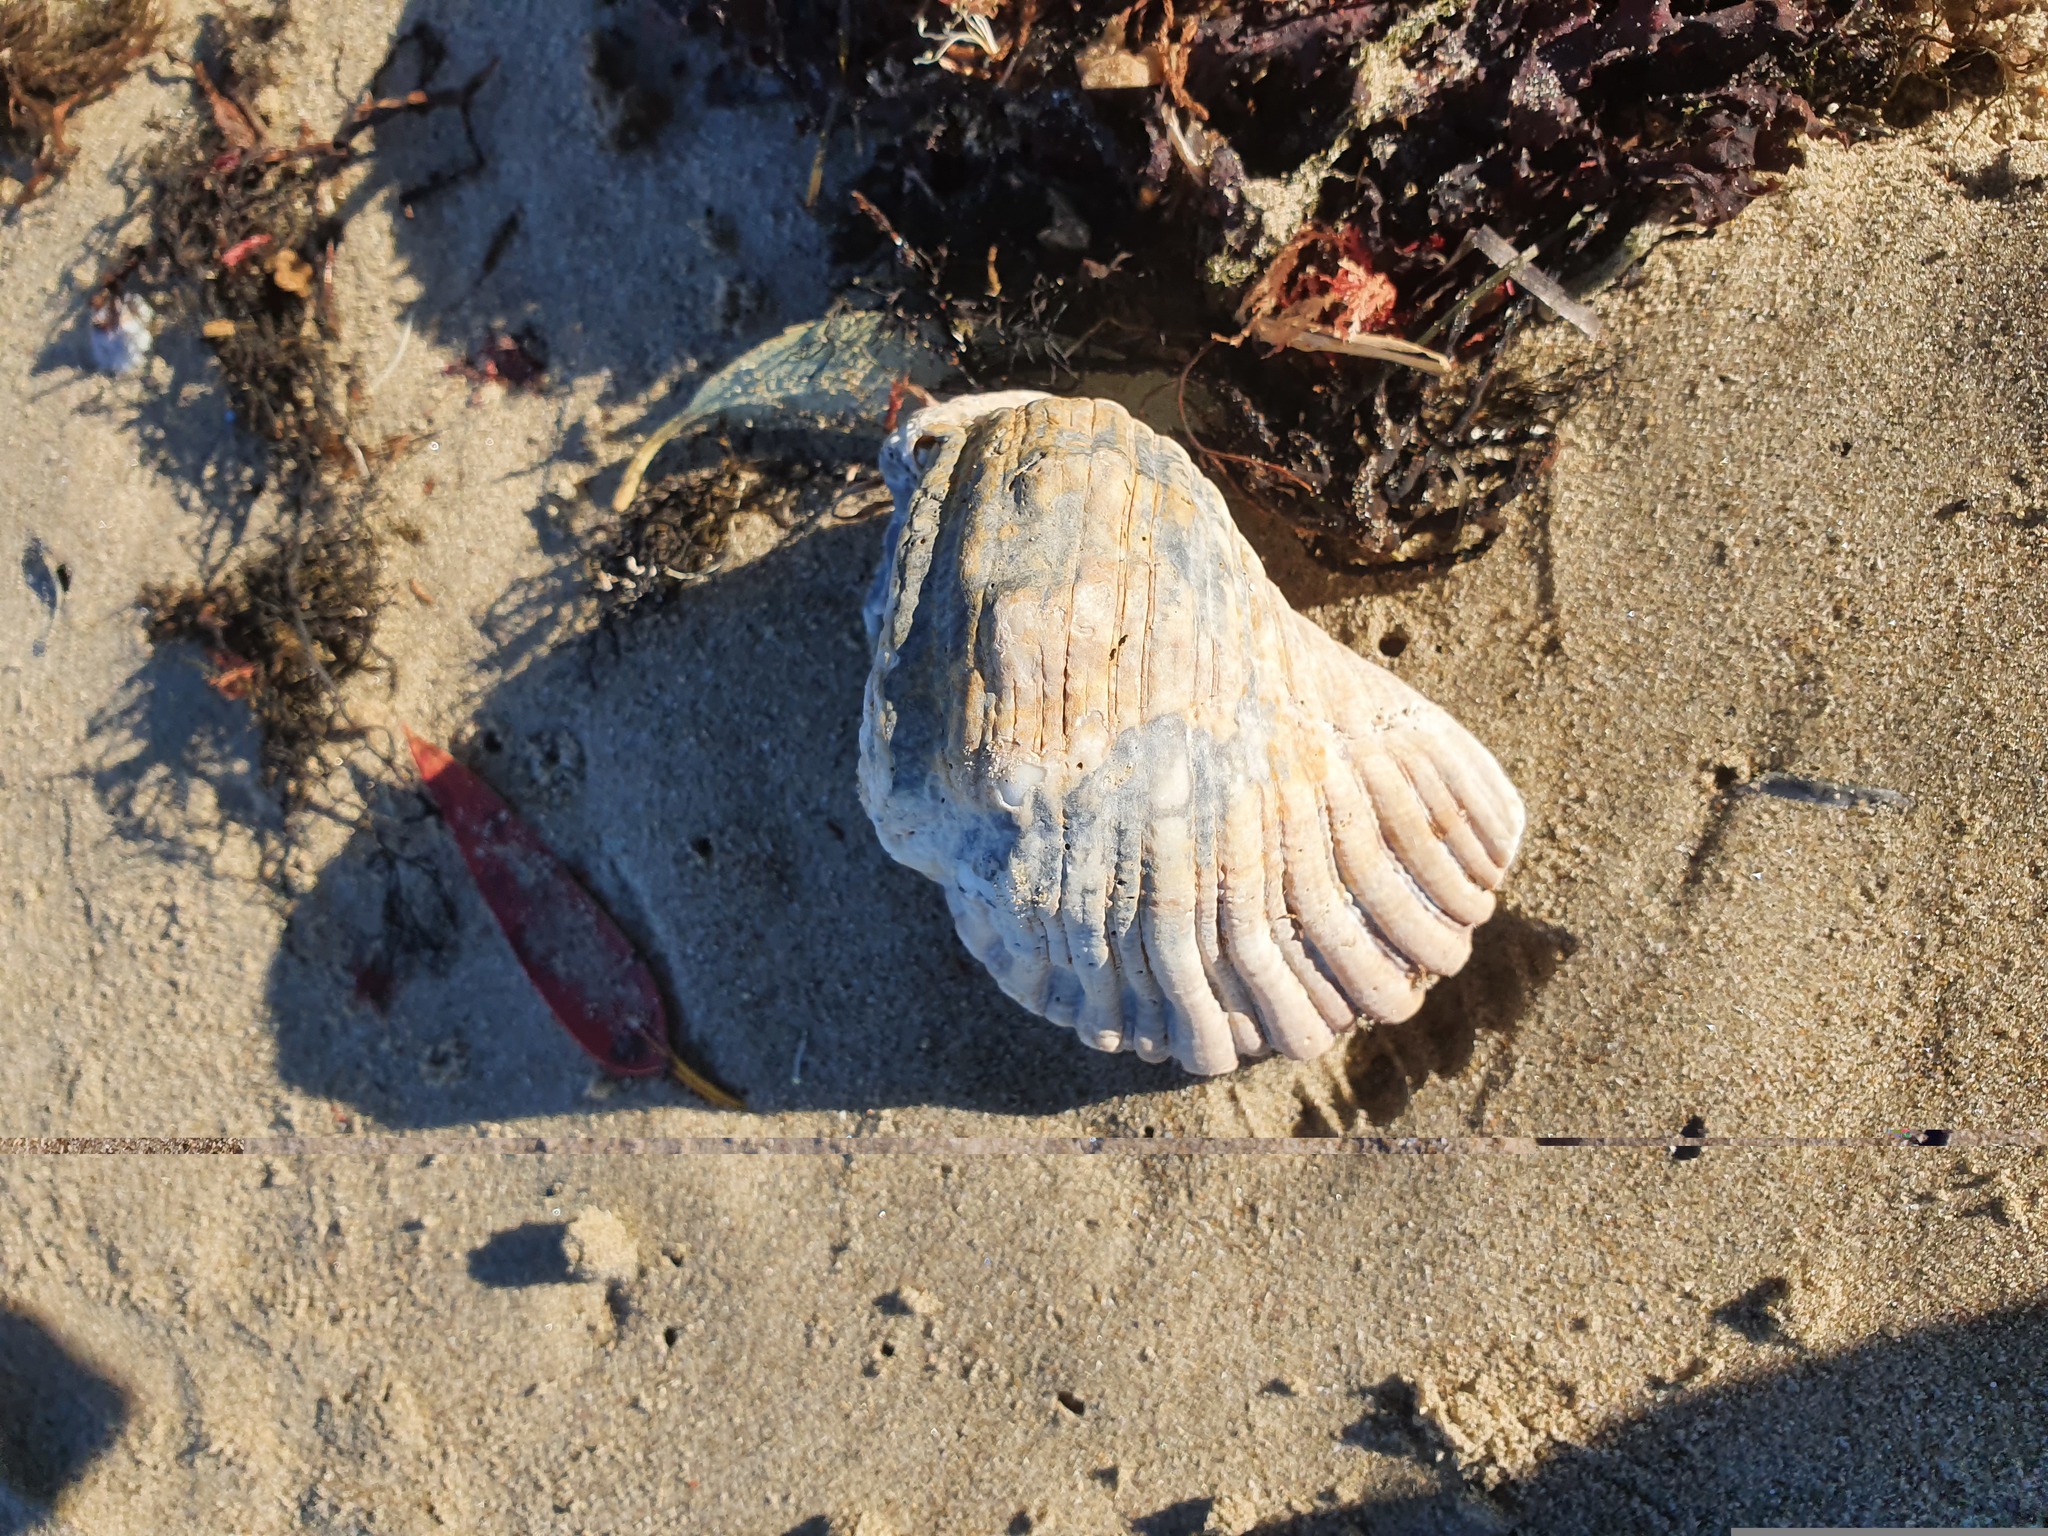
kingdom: Animalia
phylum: Mollusca
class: Gastropoda
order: Littorinimorpha
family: Cymatiidae
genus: Cabestana
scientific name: Cabestana spengleri
